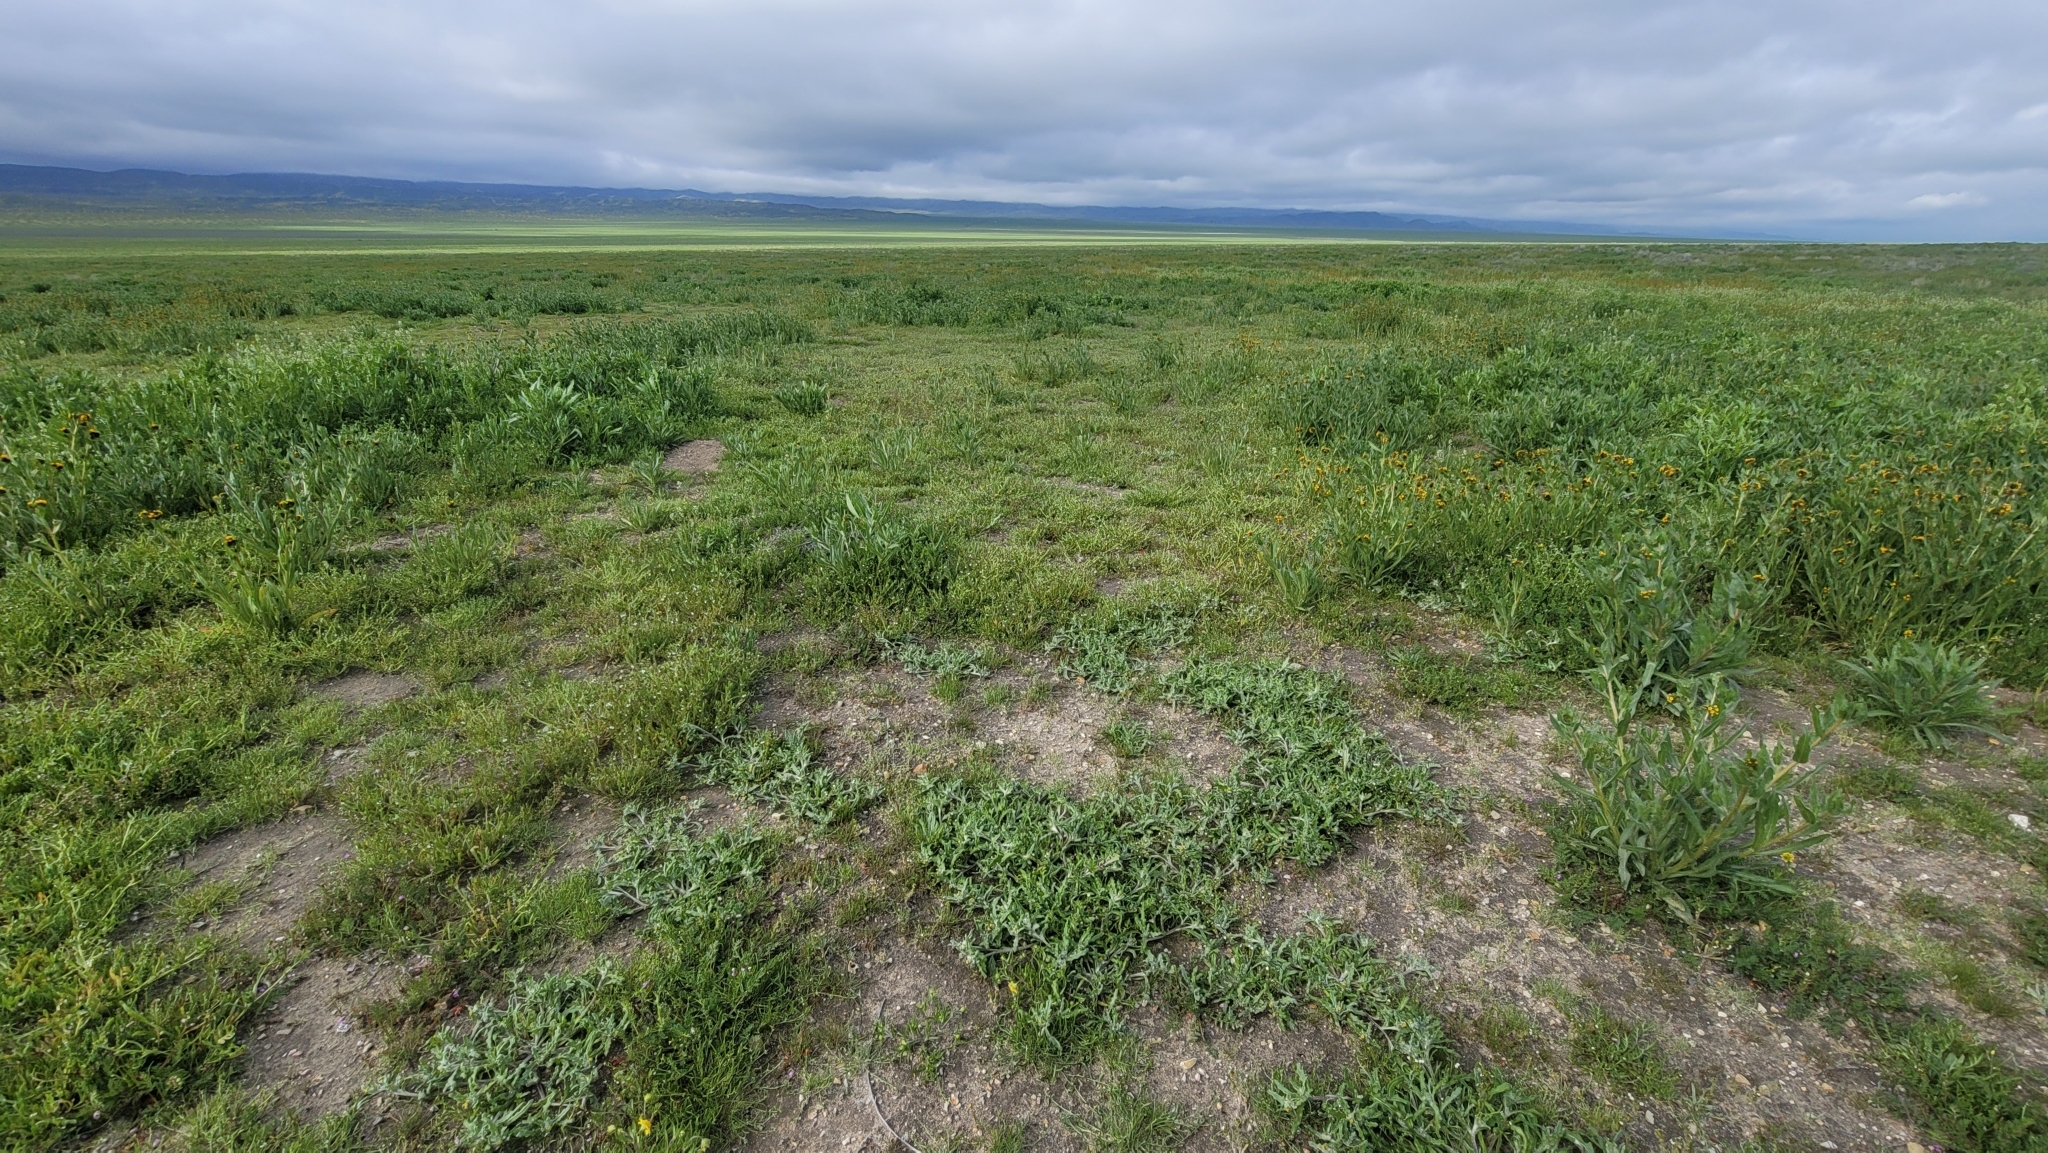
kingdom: Plantae
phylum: Tracheophyta
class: Magnoliopsida
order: Asterales
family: Asteraceae
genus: Monolopia
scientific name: Monolopia congdonii
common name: San joaquin woolly-threads
